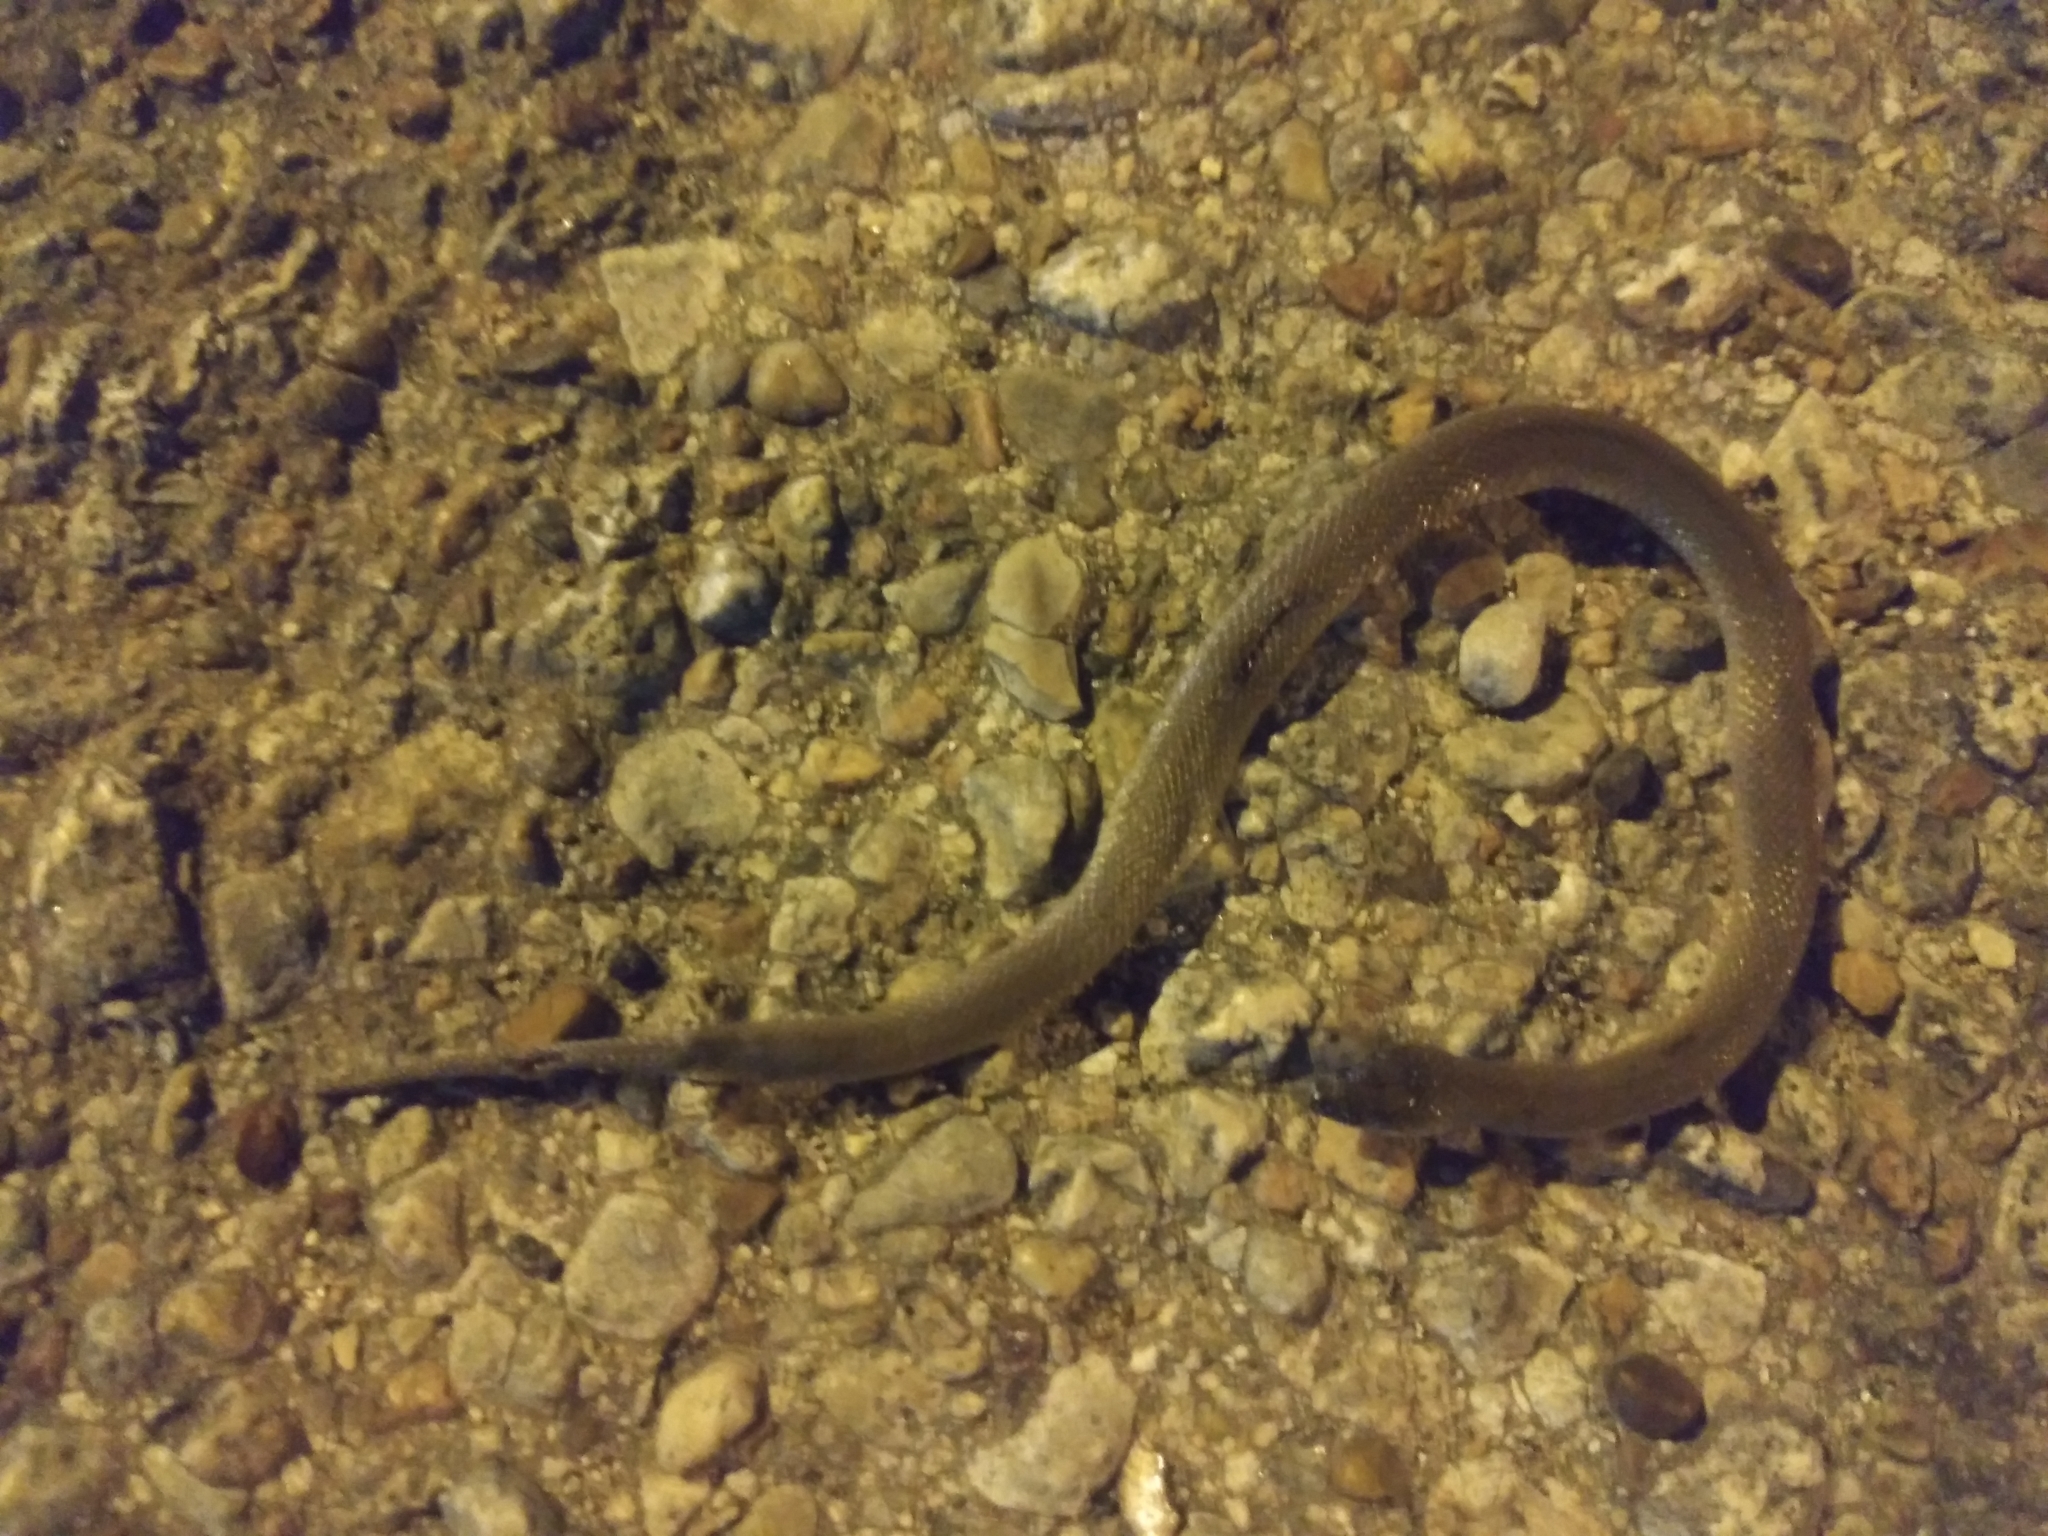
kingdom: Animalia
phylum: Chordata
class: Squamata
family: Colubridae
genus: Haldea
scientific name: Haldea striatula
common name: Rough earth snake
